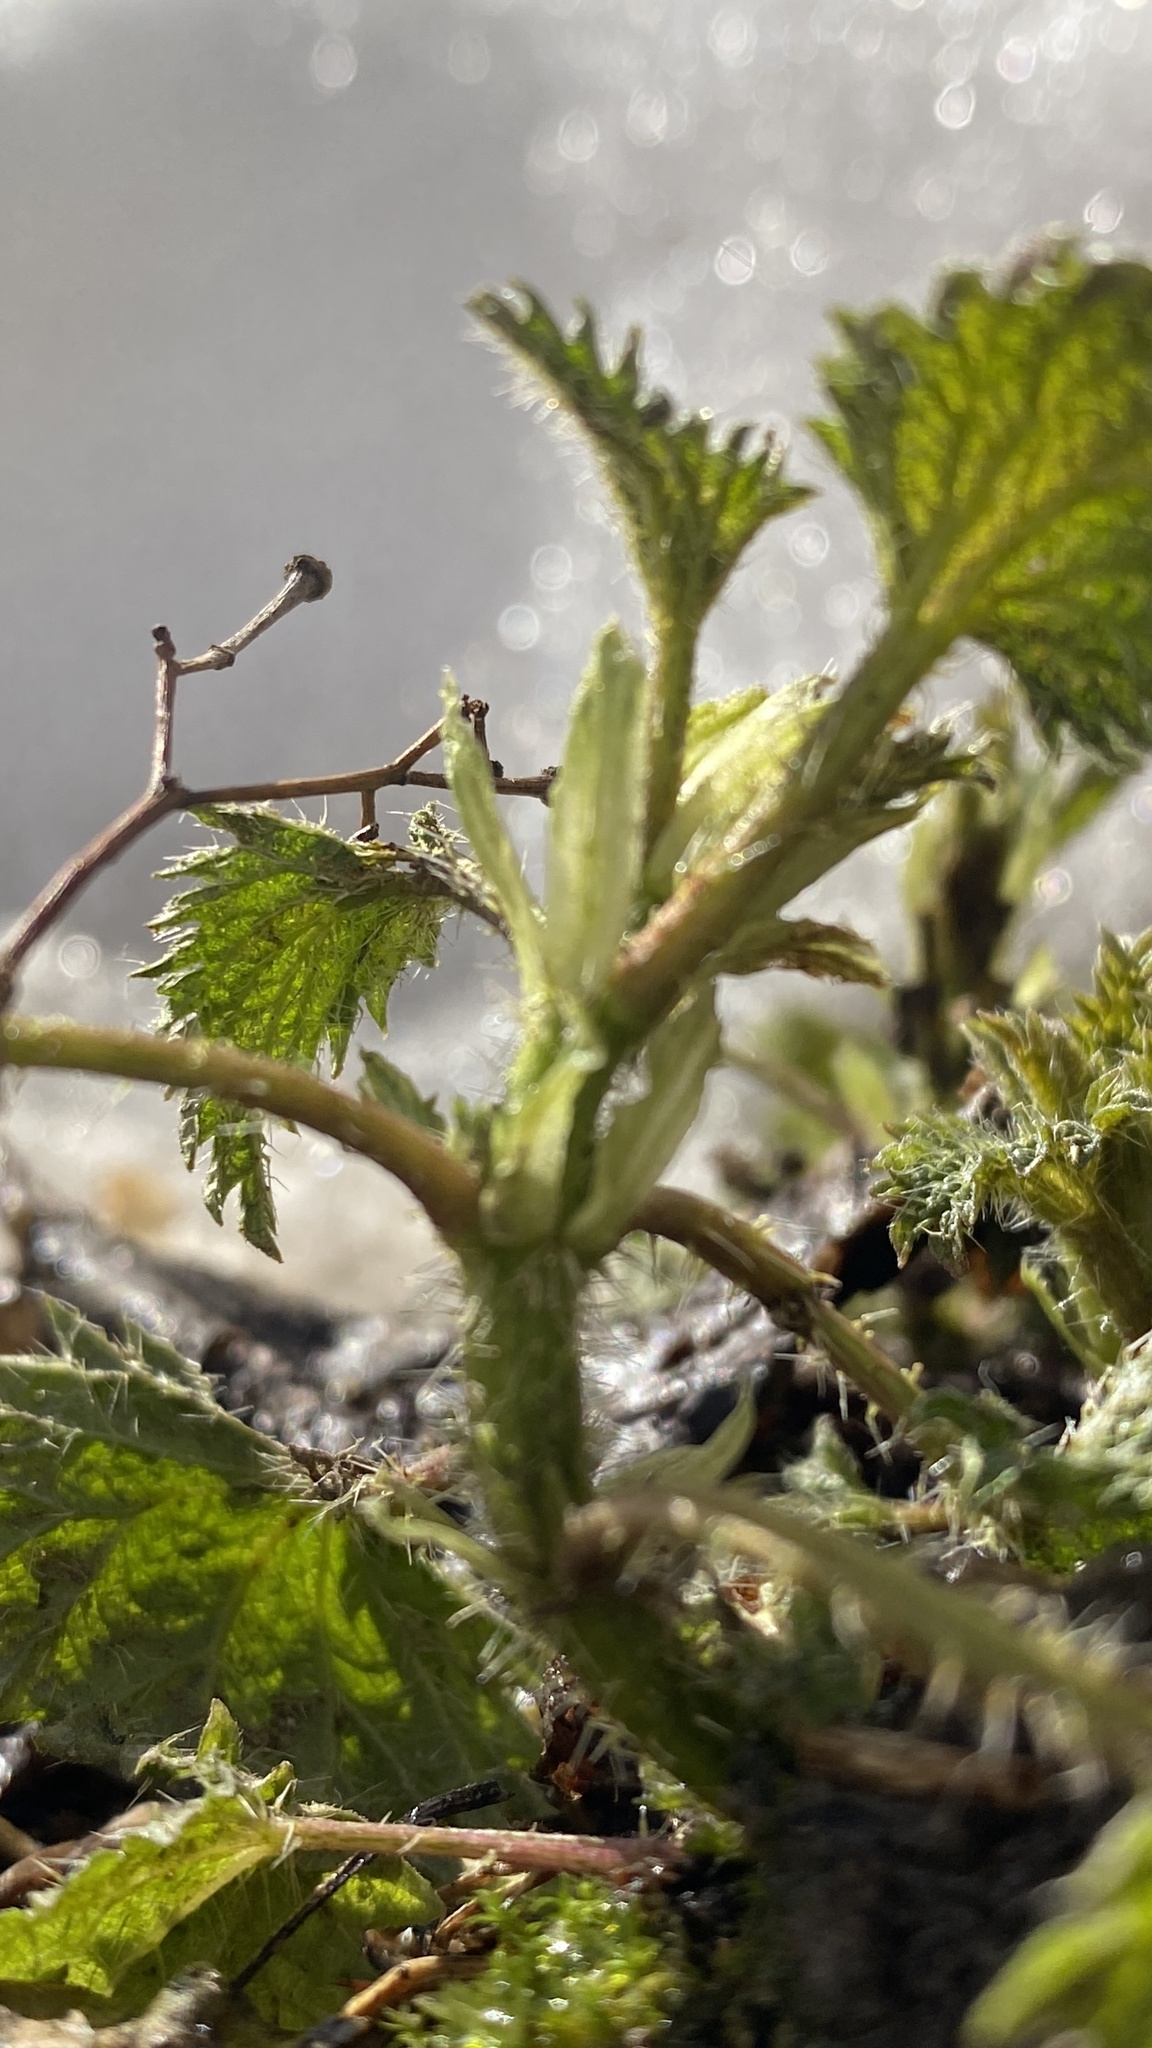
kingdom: Plantae
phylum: Tracheophyta
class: Magnoliopsida
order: Rosales
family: Urticaceae
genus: Urtica
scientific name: Urtica dioica
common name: Common nettle
